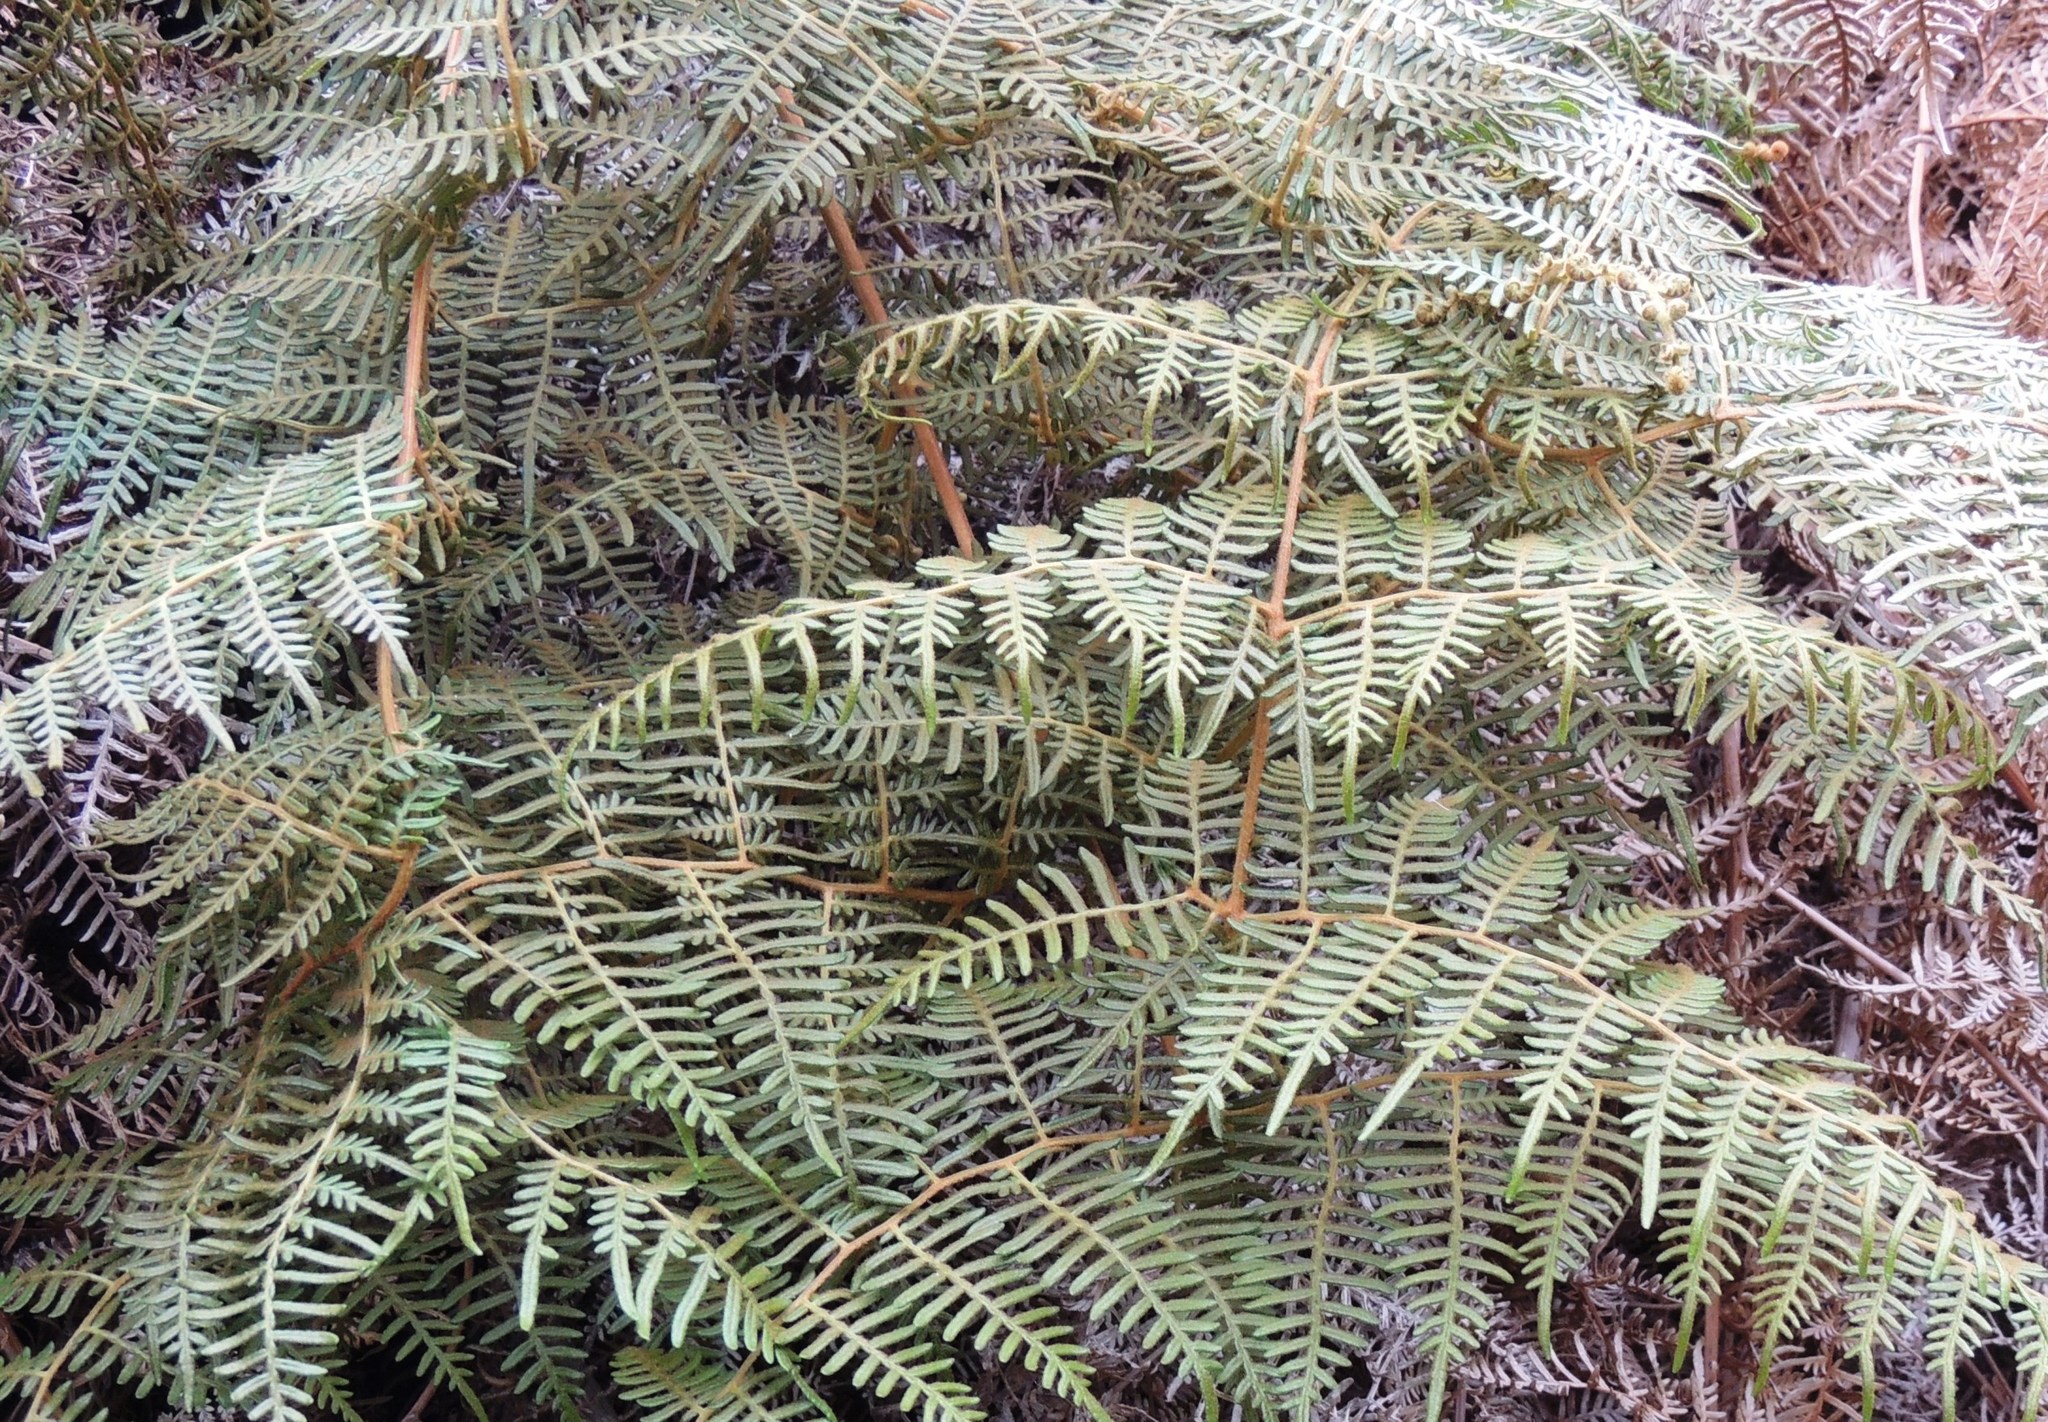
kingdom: Plantae
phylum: Tracheophyta
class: Polypodiopsida
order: Polypodiales
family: Dennstaedtiaceae
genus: Pteridium
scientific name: Pteridium esculentum
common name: Bracken fern
